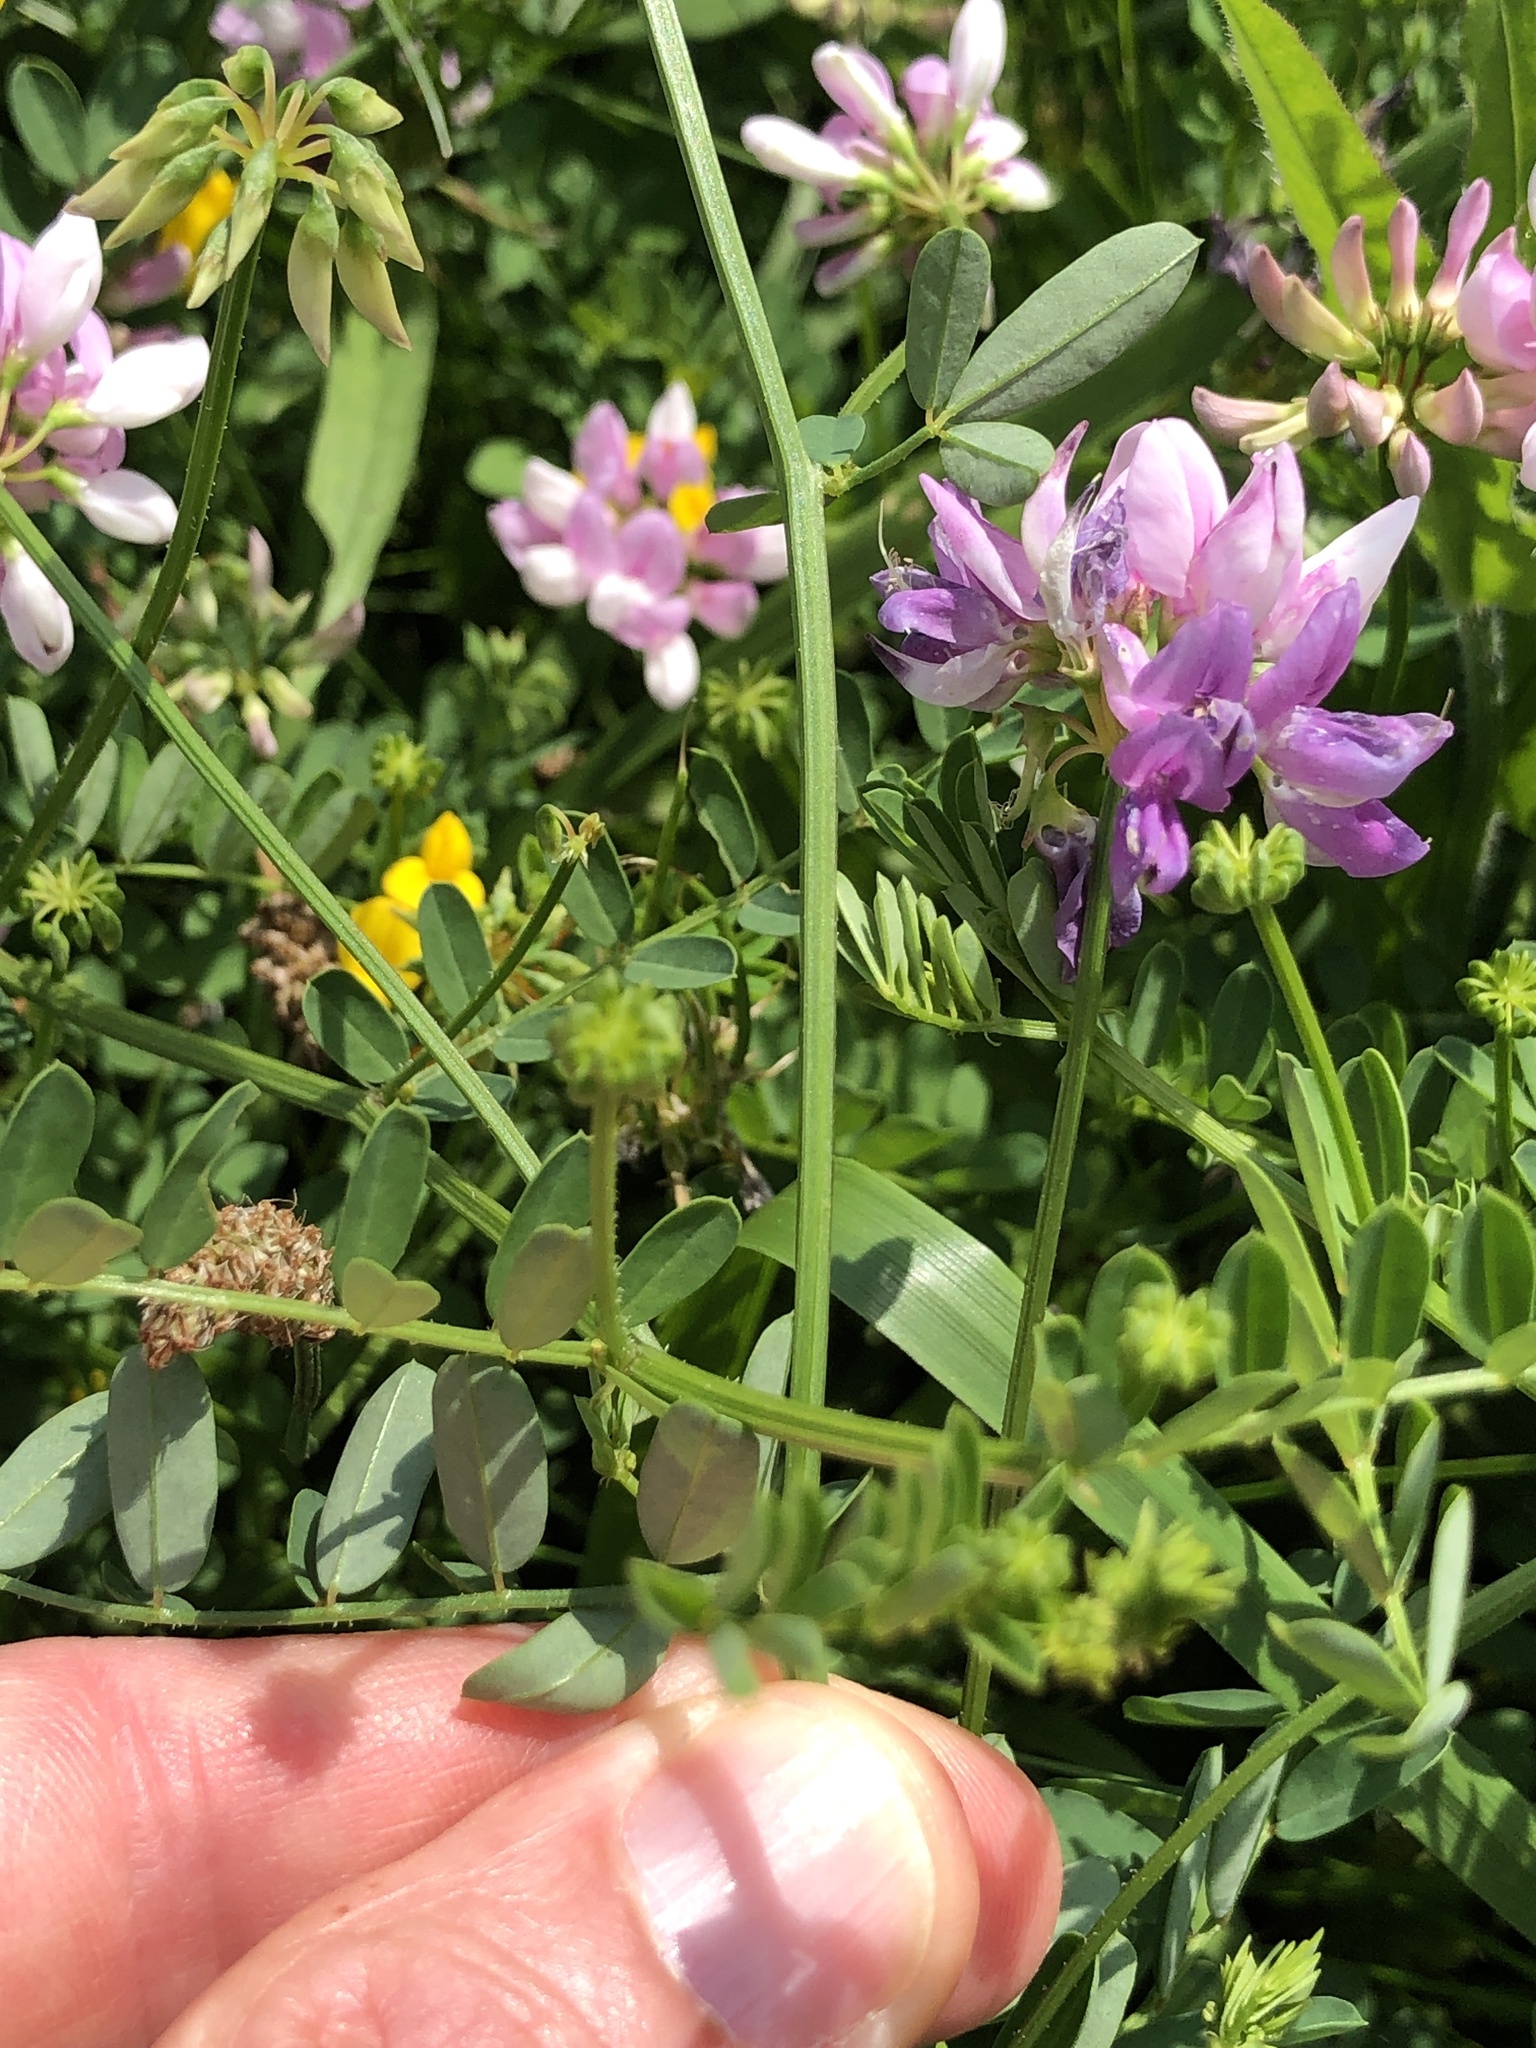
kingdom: Plantae
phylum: Tracheophyta
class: Magnoliopsida
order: Fabales
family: Fabaceae
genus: Coronilla
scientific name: Coronilla varia
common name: Crownvetch
